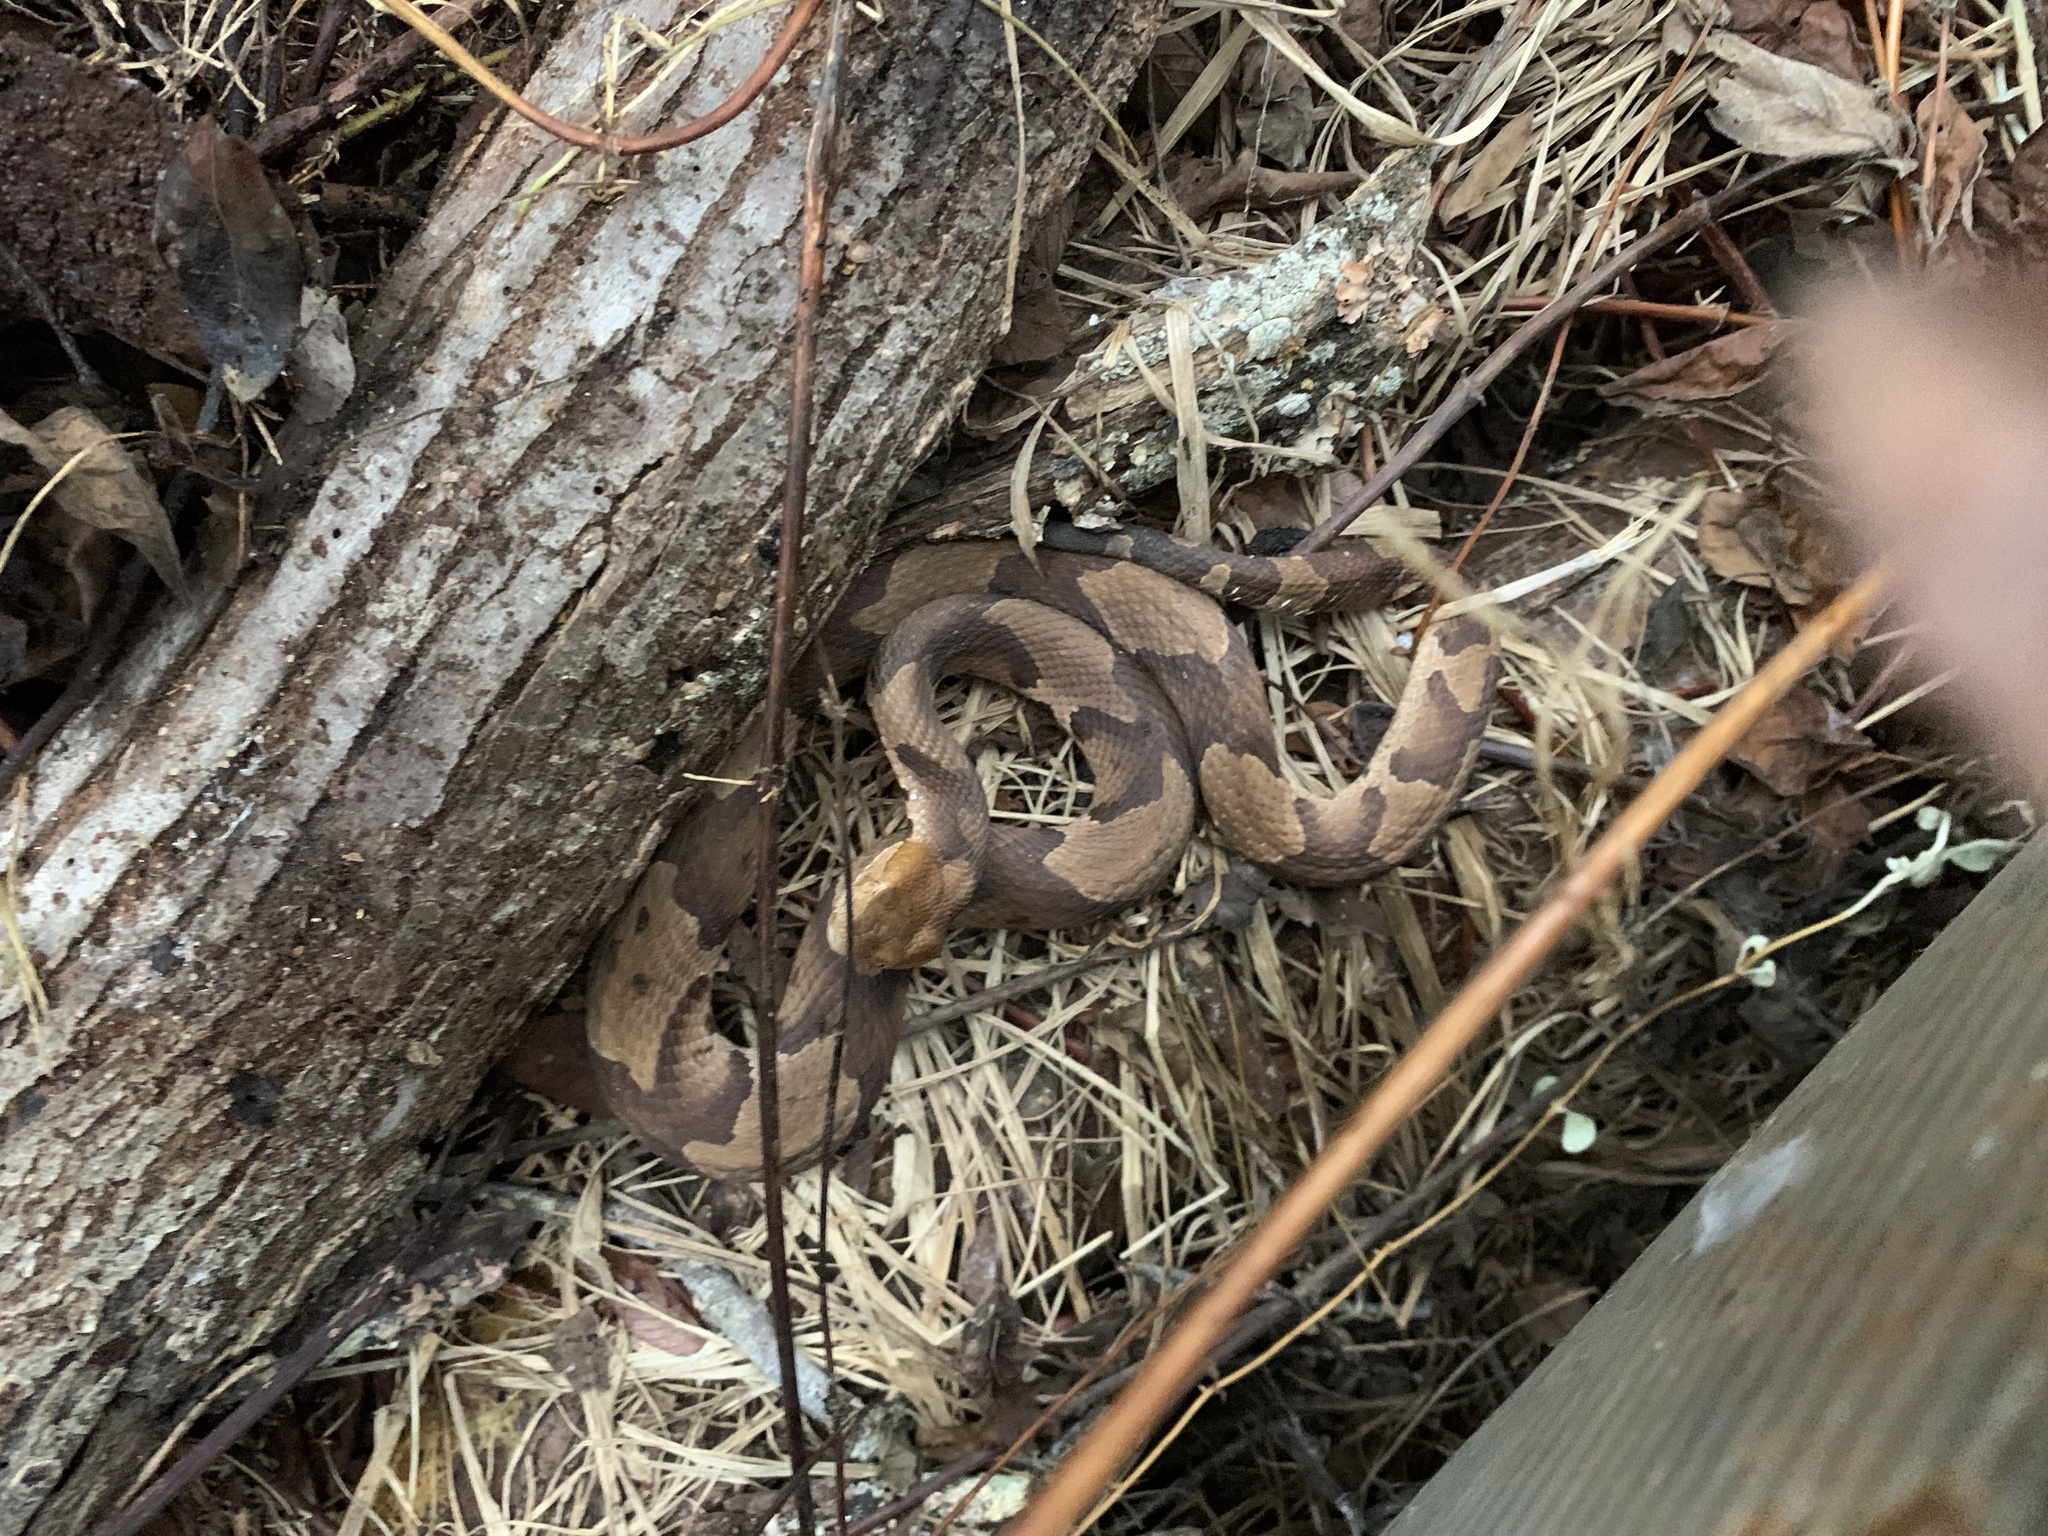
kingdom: Animalia
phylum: Chordata
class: Squamata
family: Viperidae
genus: Agkistrodon
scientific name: Agkistrodon contortrix
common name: Northern copperhead
